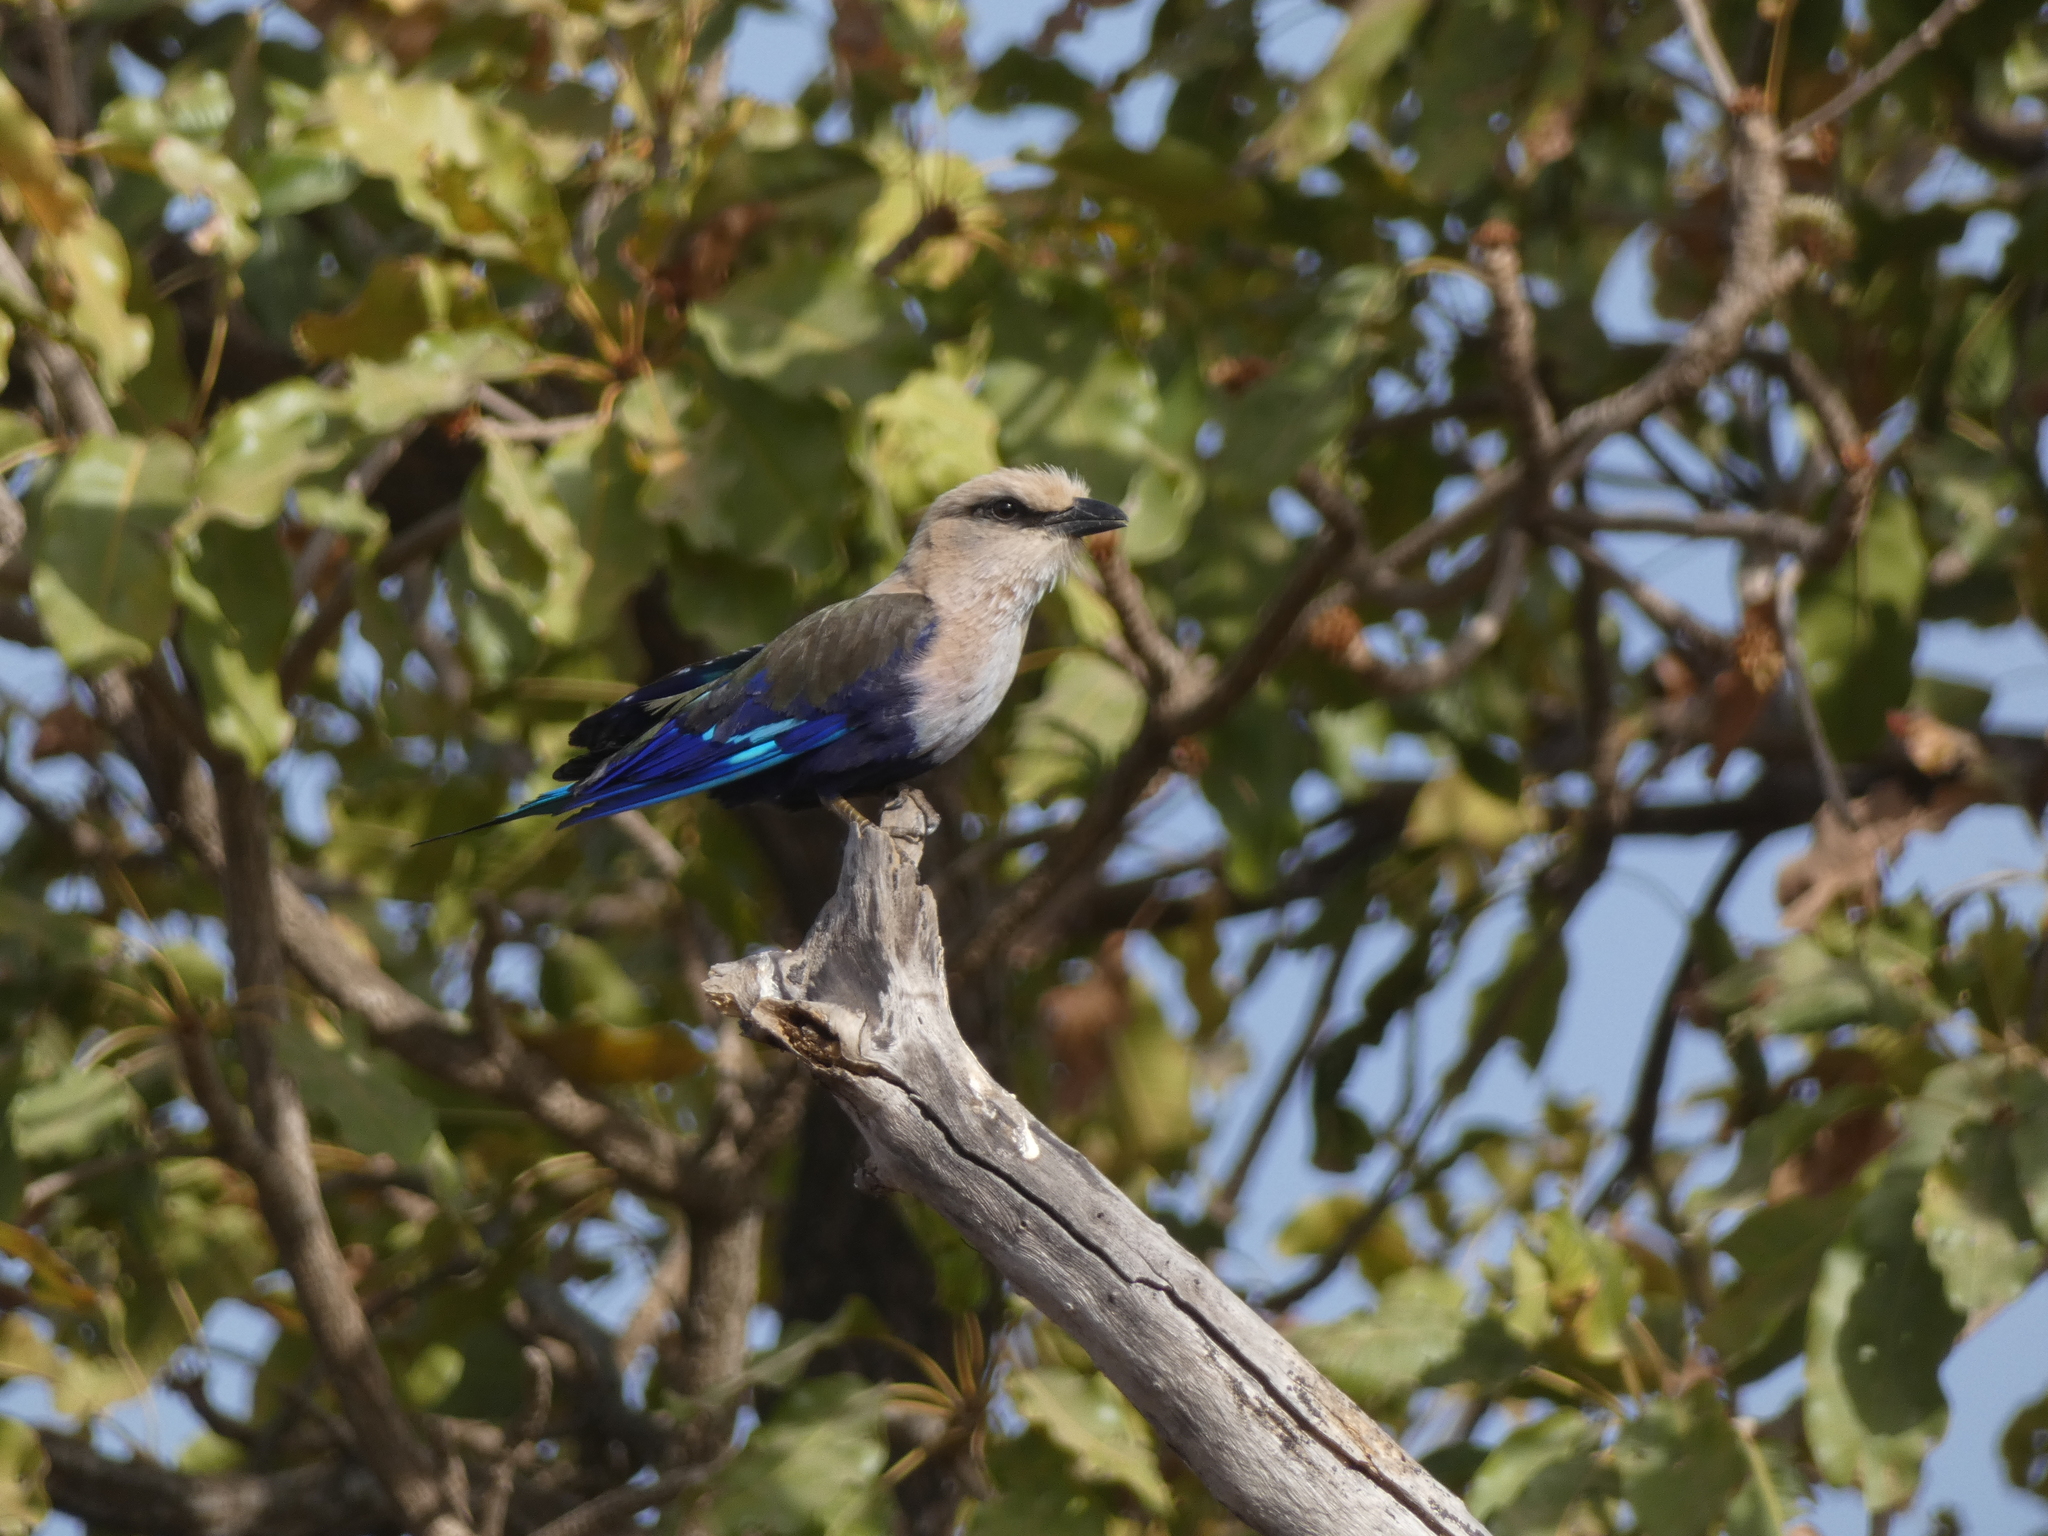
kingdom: Animalia
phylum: Chordata
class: Aves
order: Coraciiformes
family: Coraciidae
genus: Coracias
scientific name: Coracias cyanogaster
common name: Blue-bellied roller
